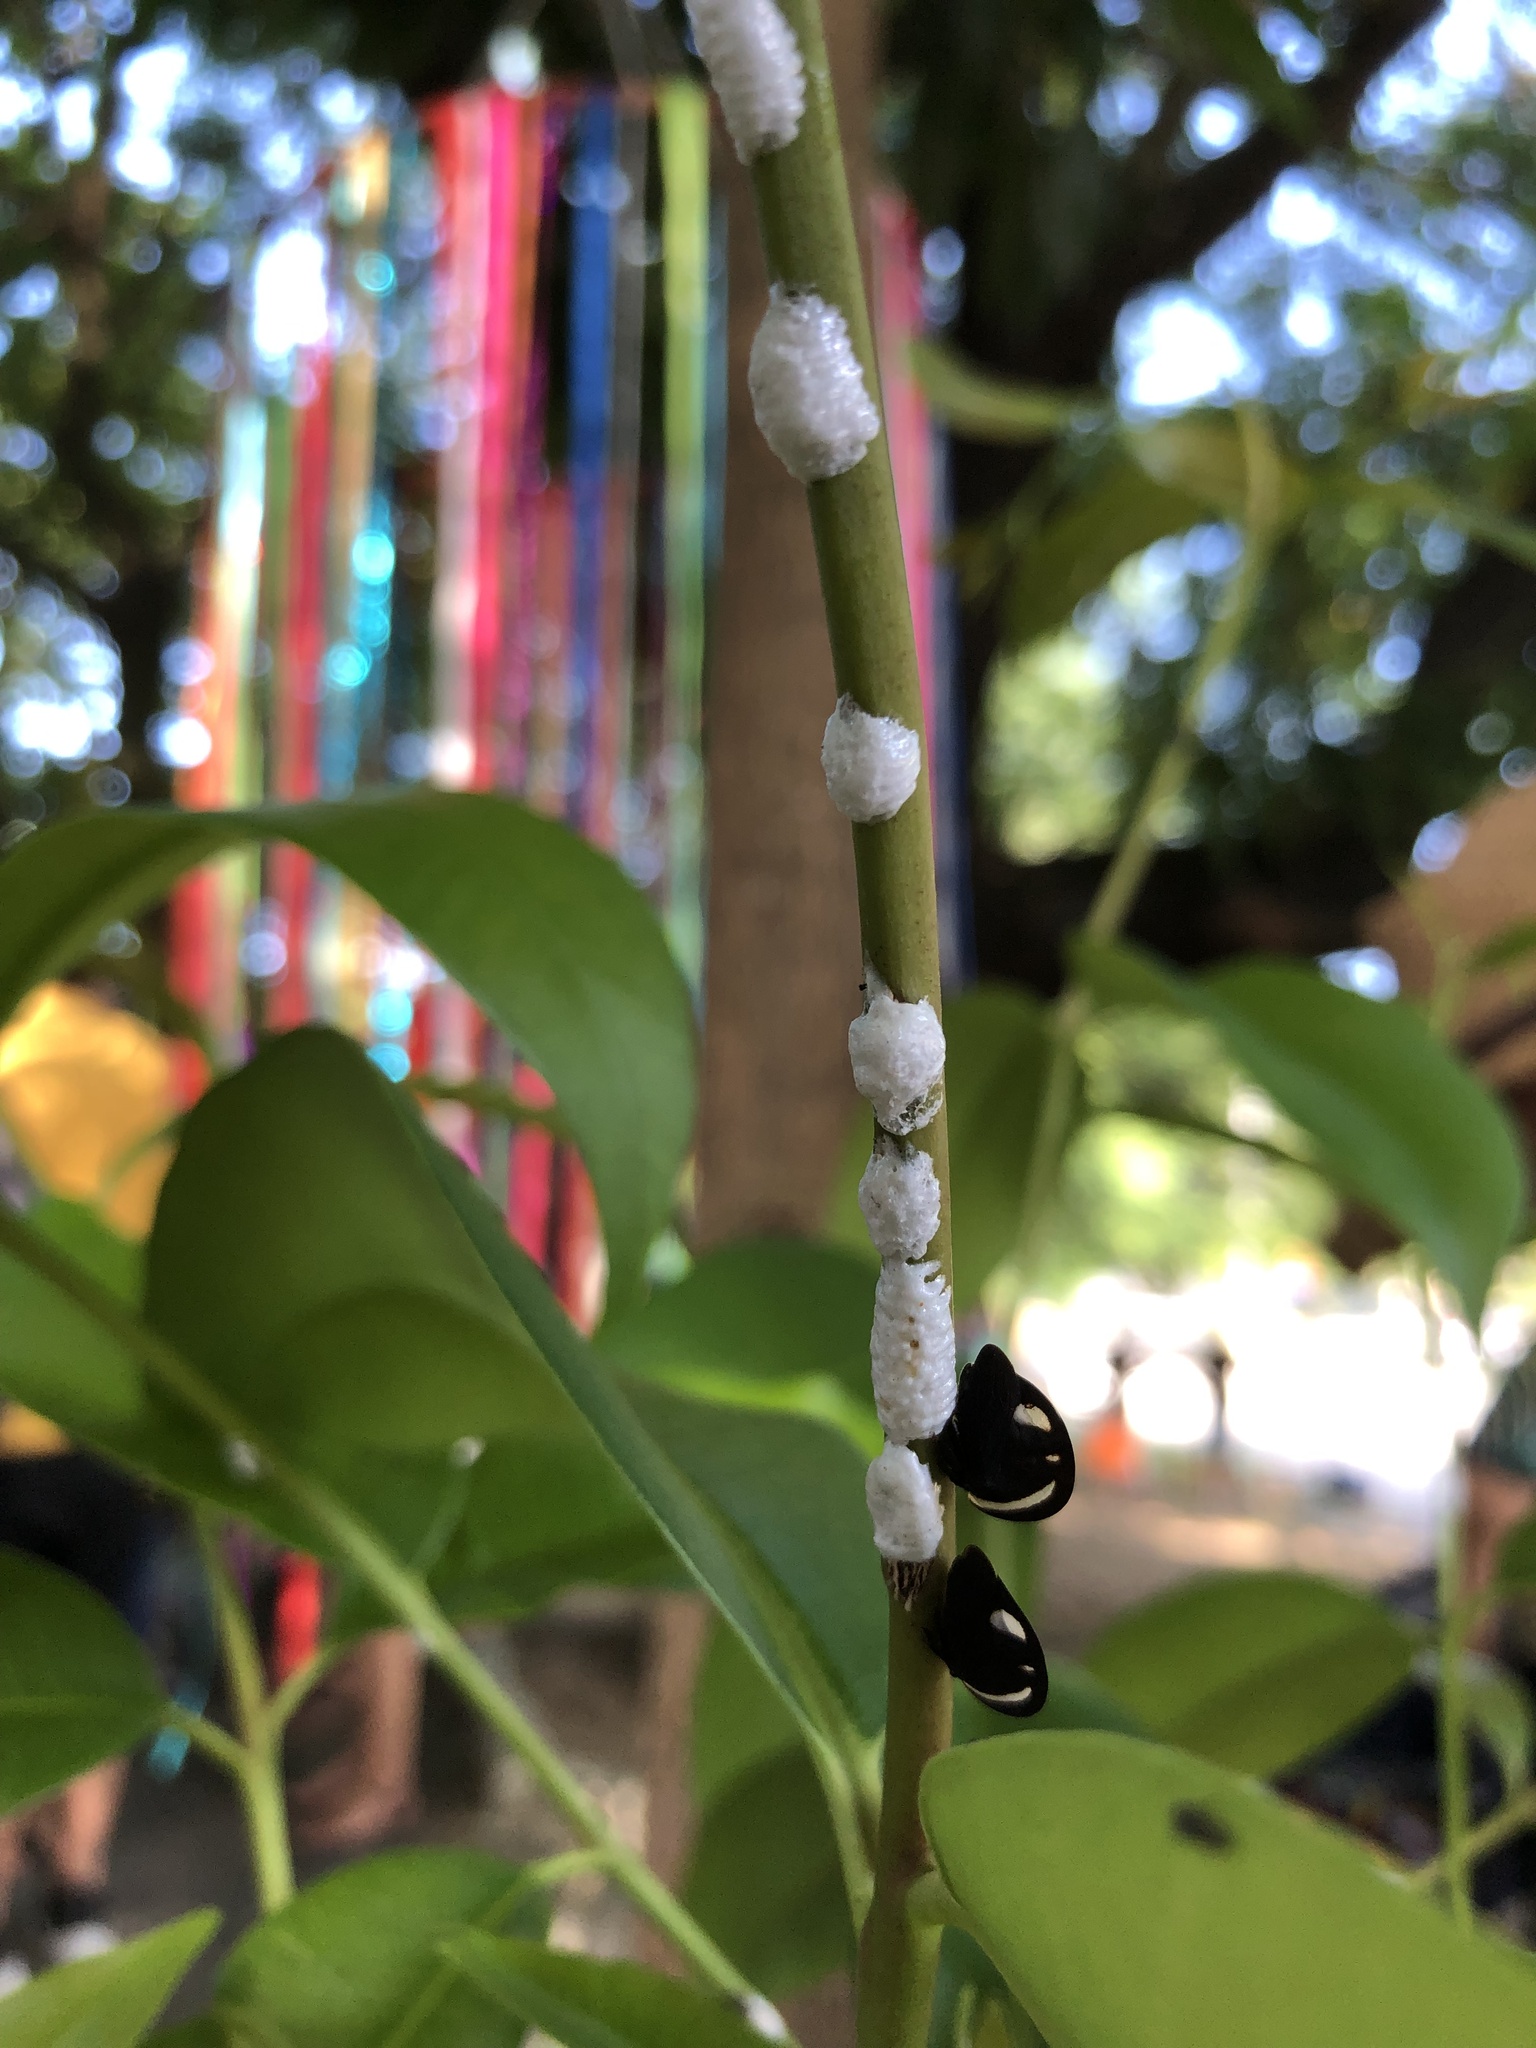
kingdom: Animalia
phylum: Arthropoda
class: Insecta
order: Hemiptera
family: Membracidae
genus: Membracis
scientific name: Membracis
